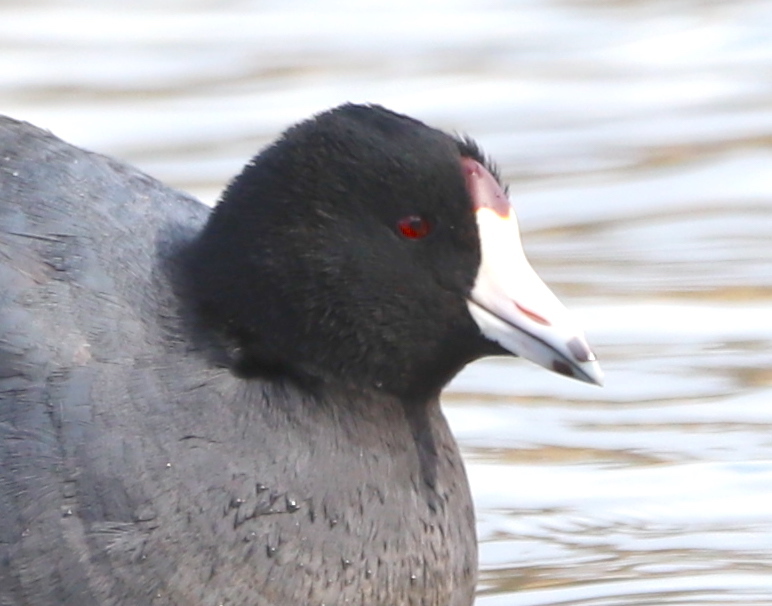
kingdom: Animalia
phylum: Chordata
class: Aves
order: Gruiformes
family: Rallidae
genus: Fulica
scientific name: Fulica americana
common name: American coot
